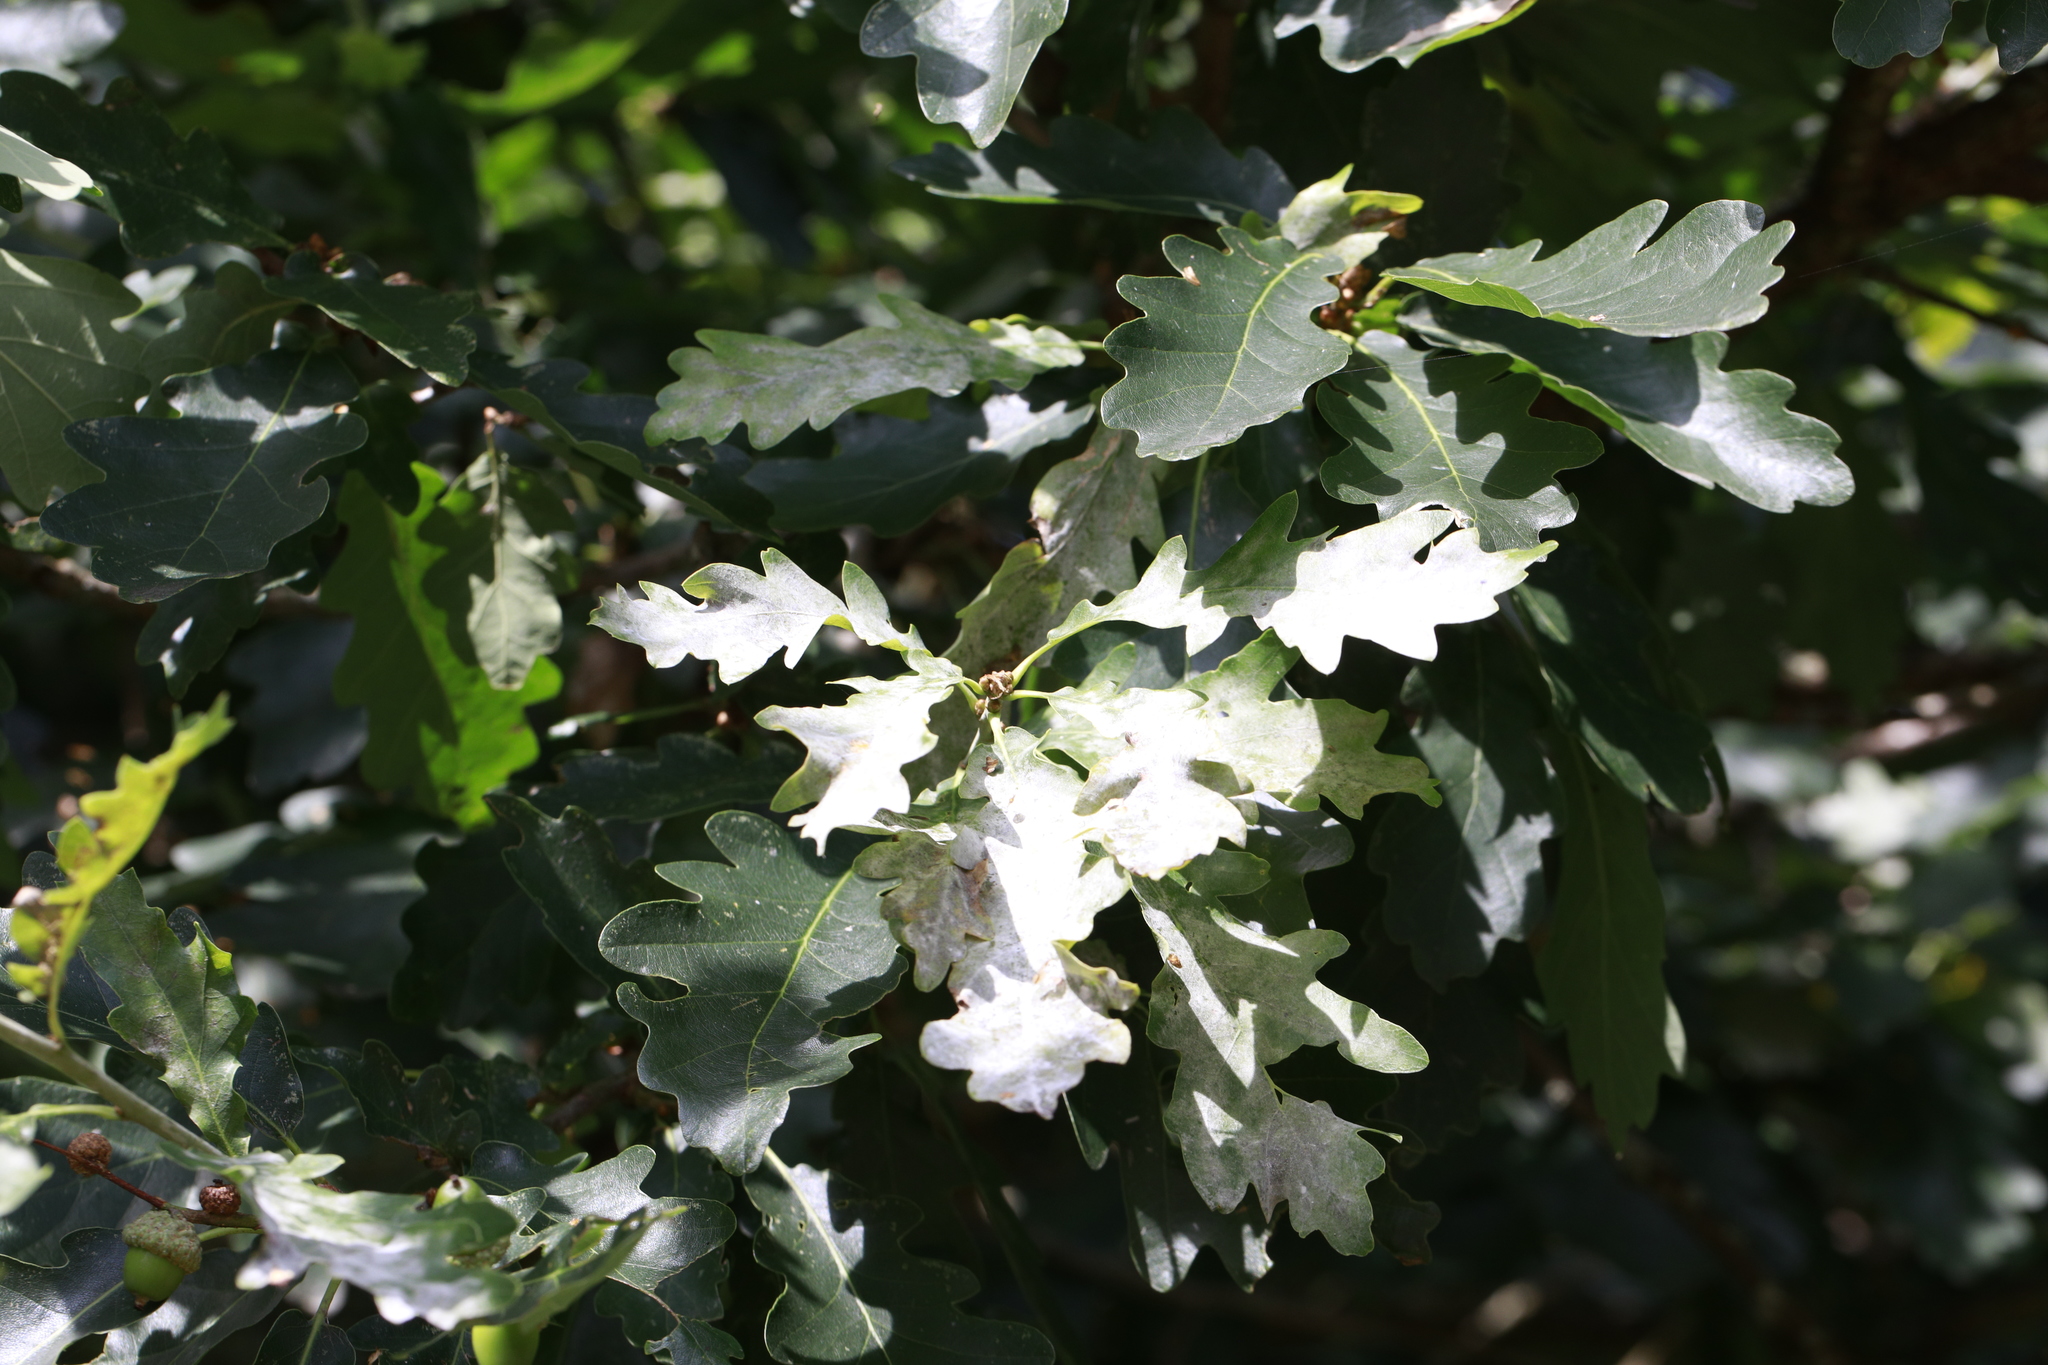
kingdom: Fungi
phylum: Ascomycota
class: Leotiomycetes
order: Helotiales
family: Erysiphaceae
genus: Erysiphe
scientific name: Erysiphe alphitoides
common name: Oak mildew
